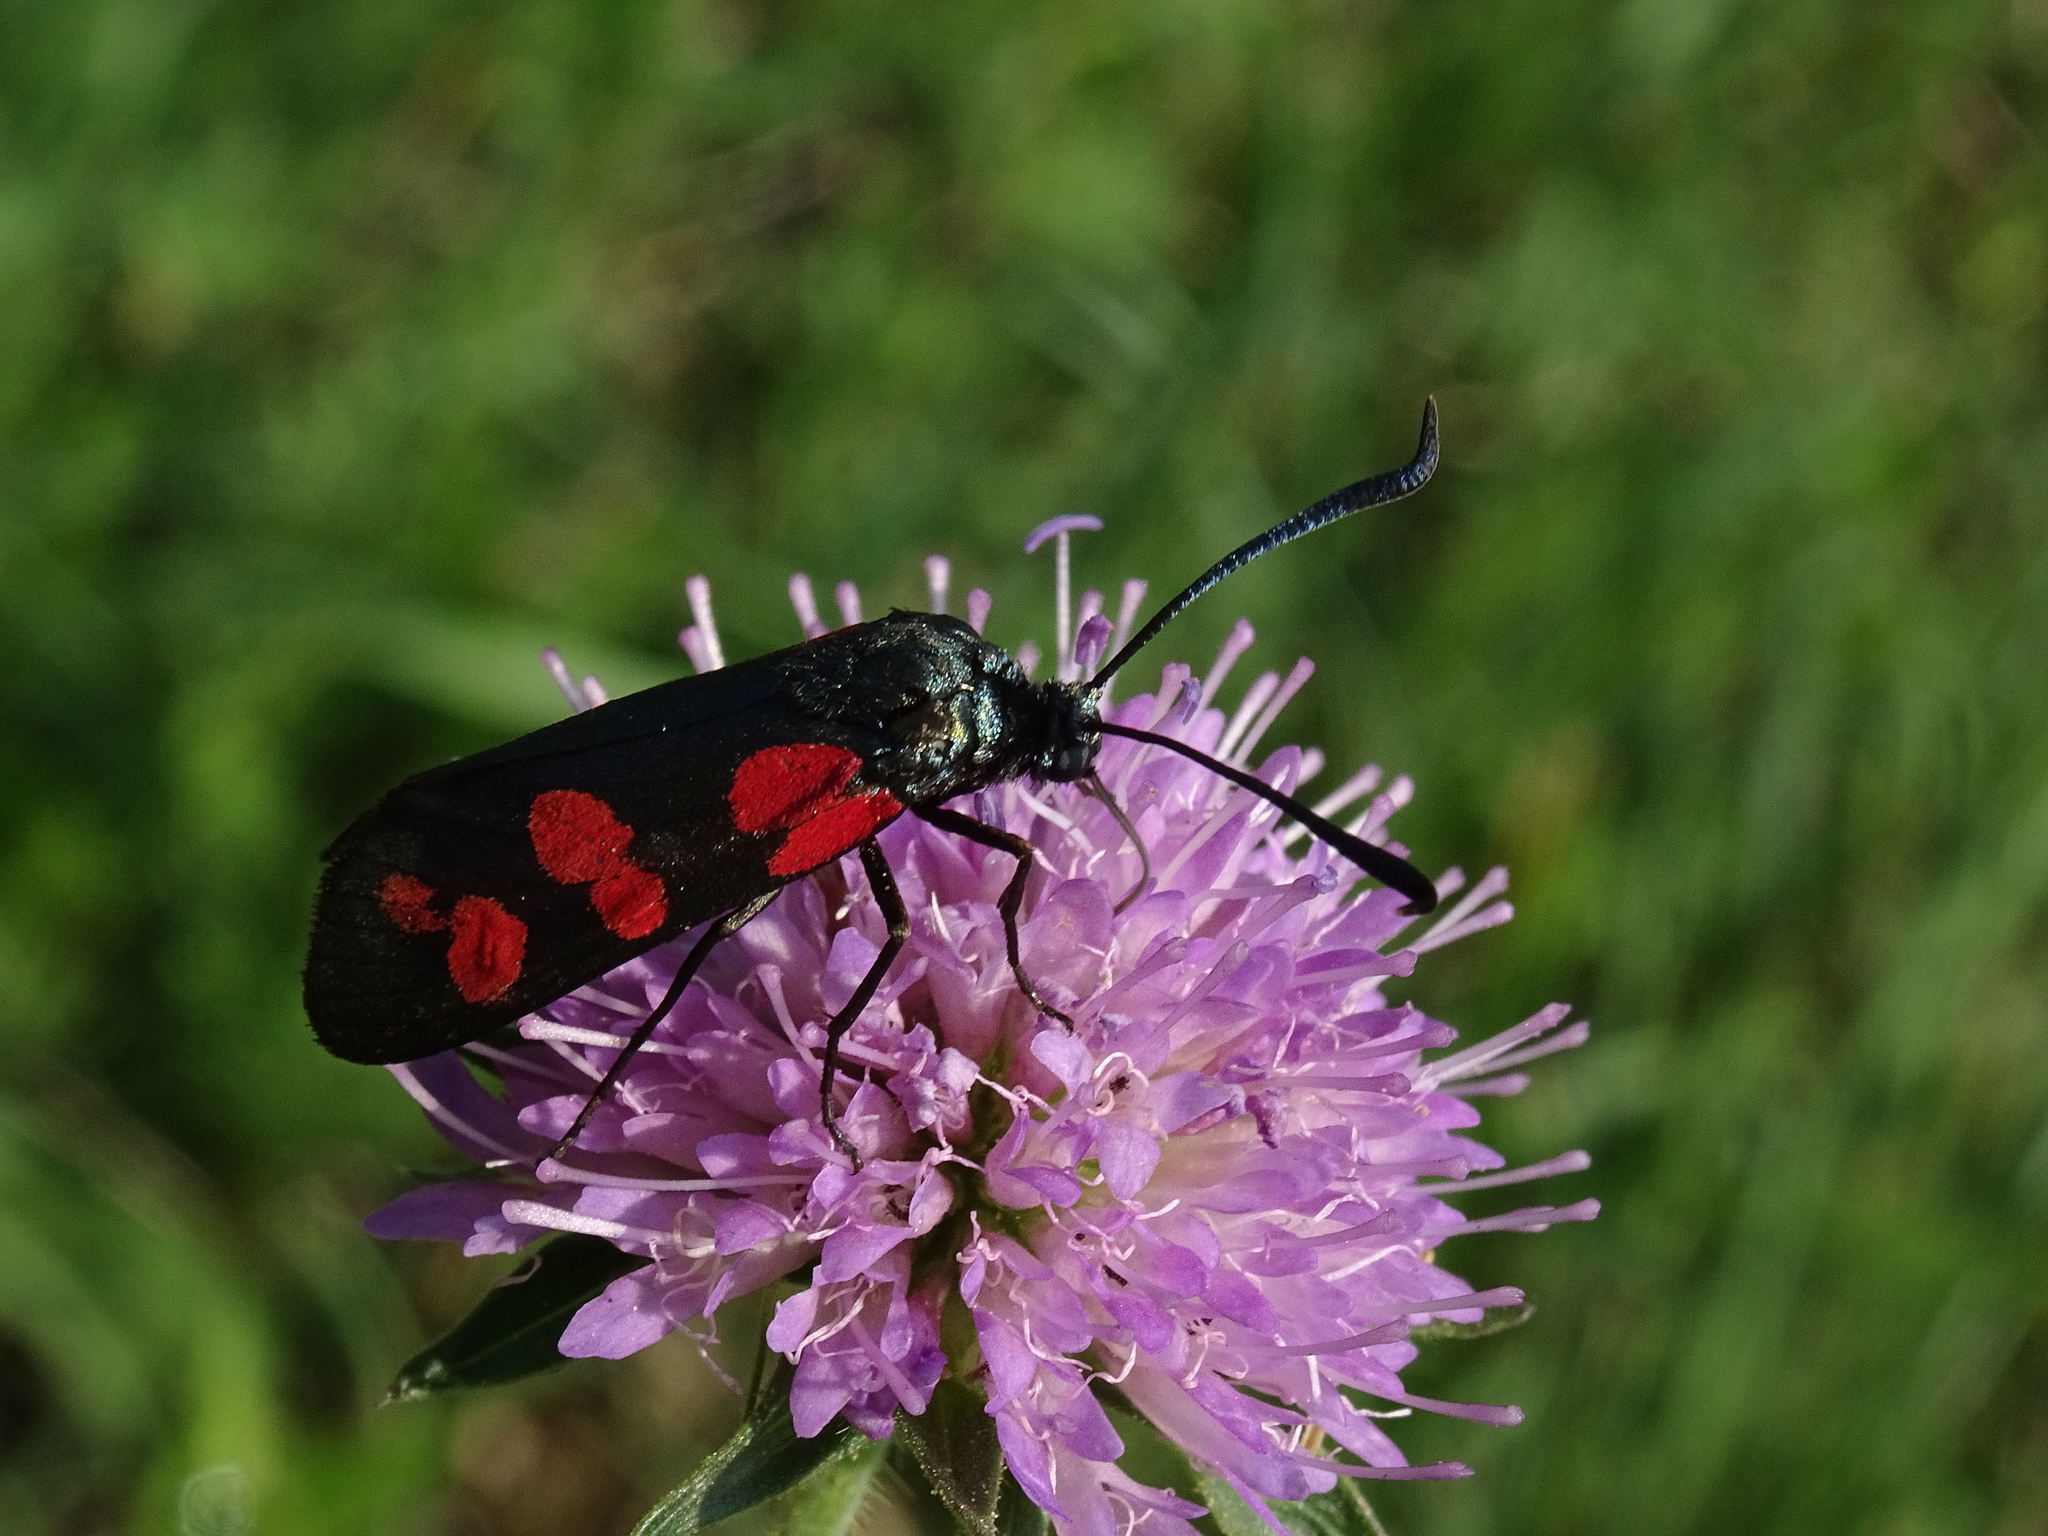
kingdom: Animalia
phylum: Arthropoda
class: Insecta
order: Lepidoptera
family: Zygaenidae
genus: Zygaena
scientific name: Zygaena filipendulae
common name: Six-spot burnet
